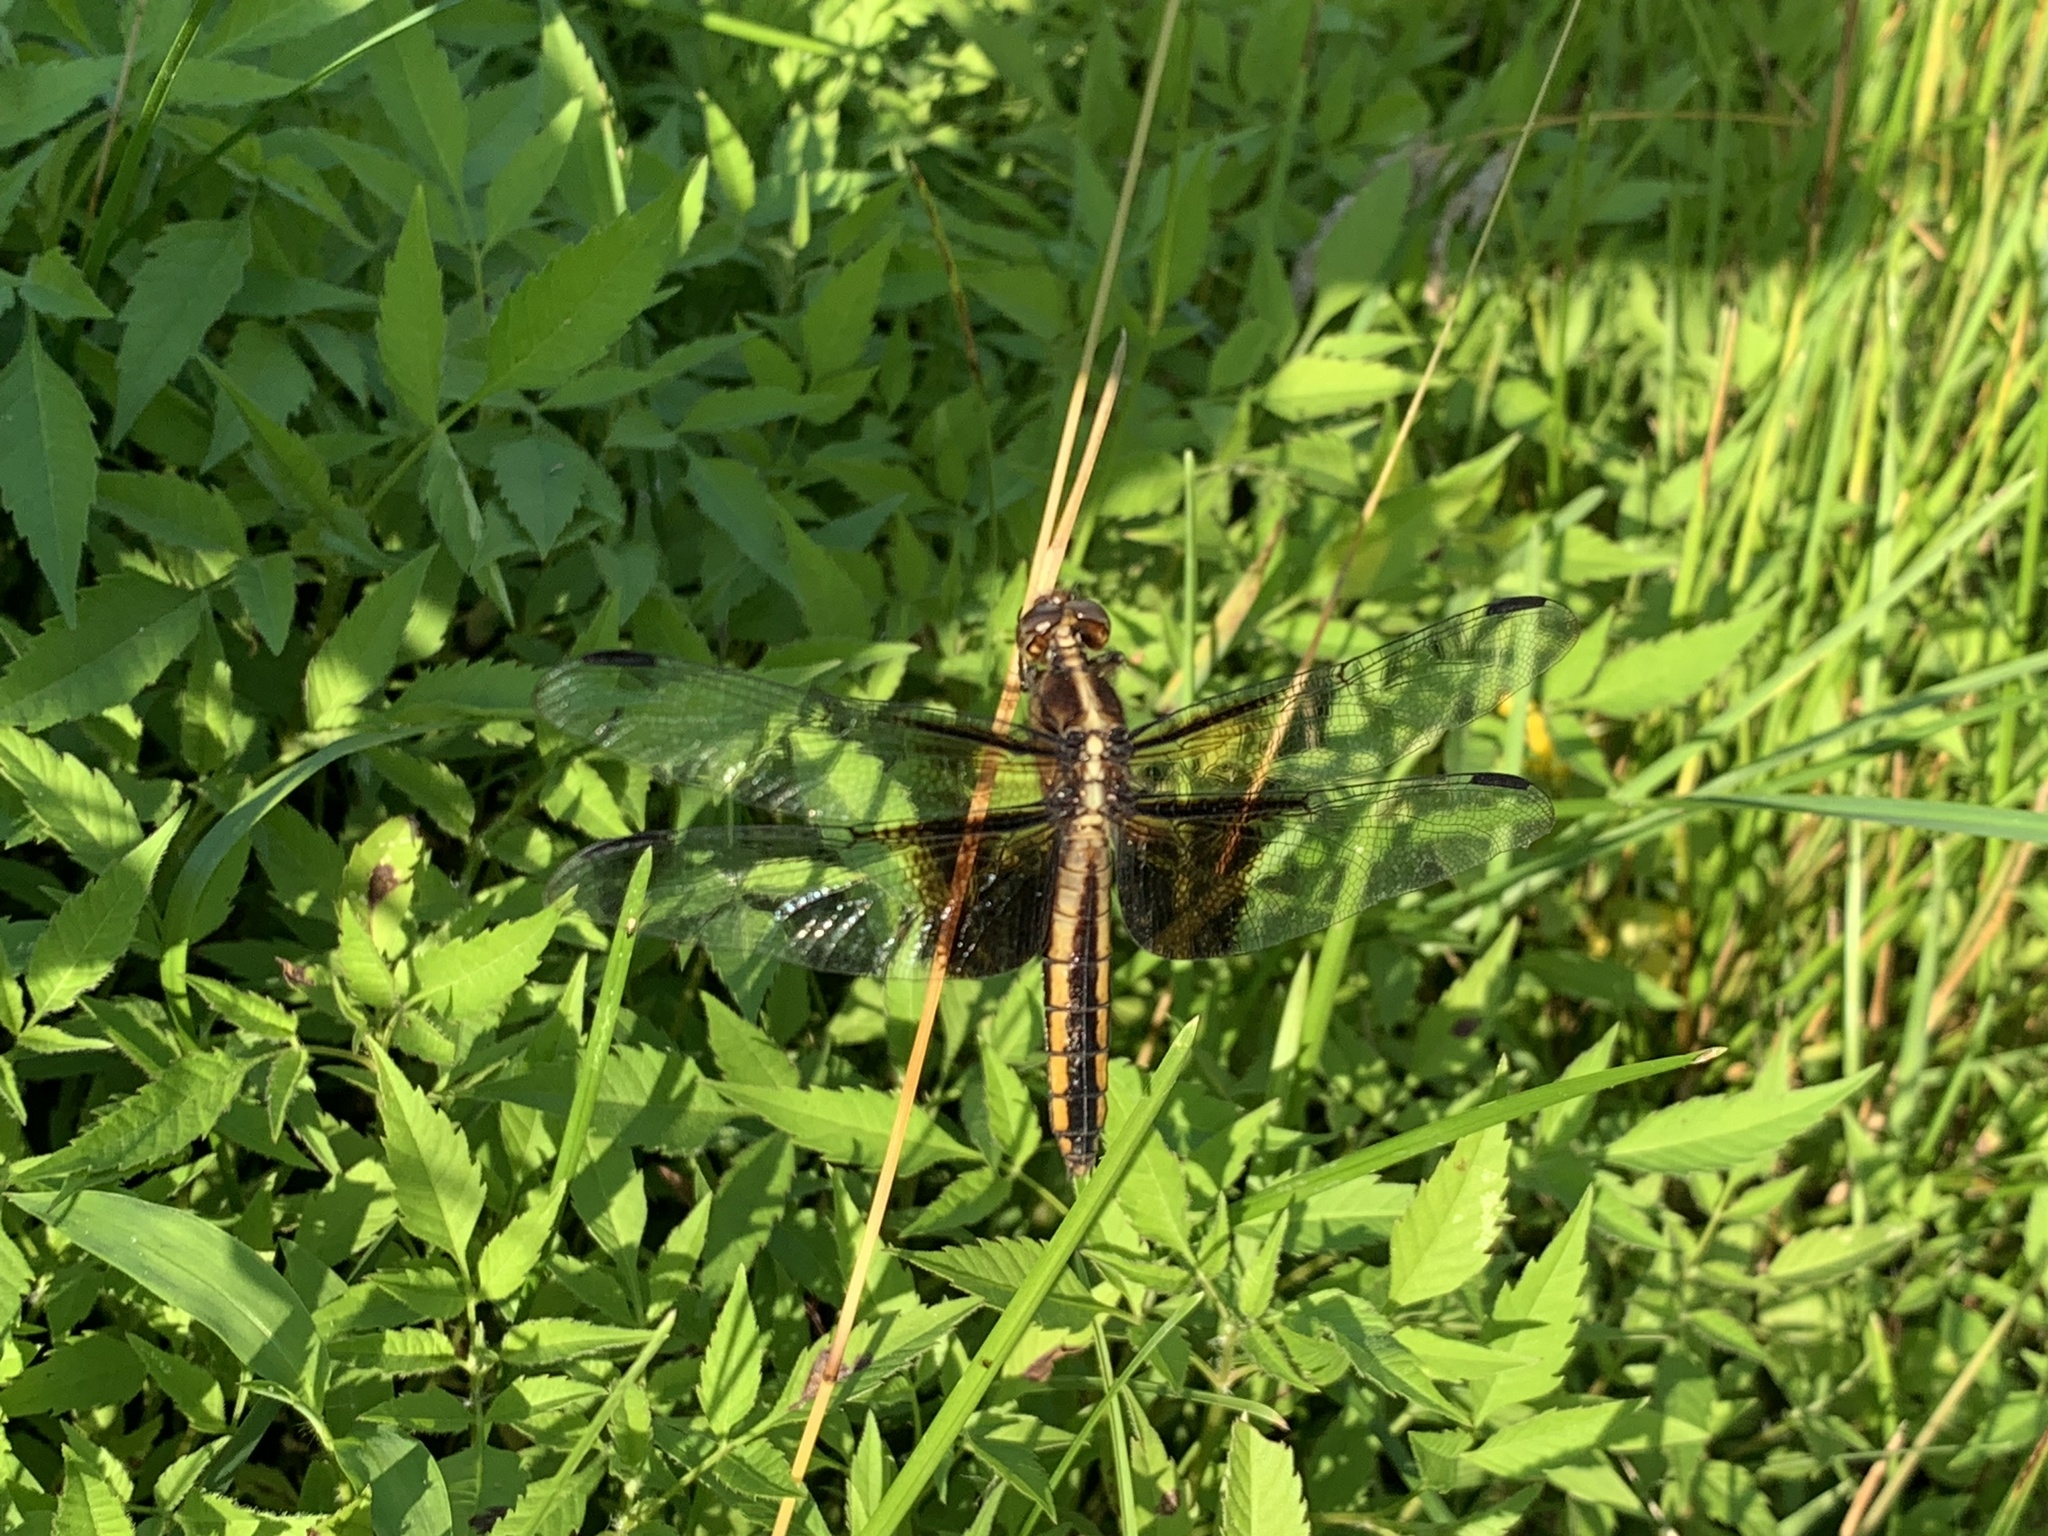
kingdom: Animalia
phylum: Arthropoda
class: Insecta
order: Odonata
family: Libellulidae
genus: Libellula
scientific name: Libellula luctuosa
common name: Widow skimmer
